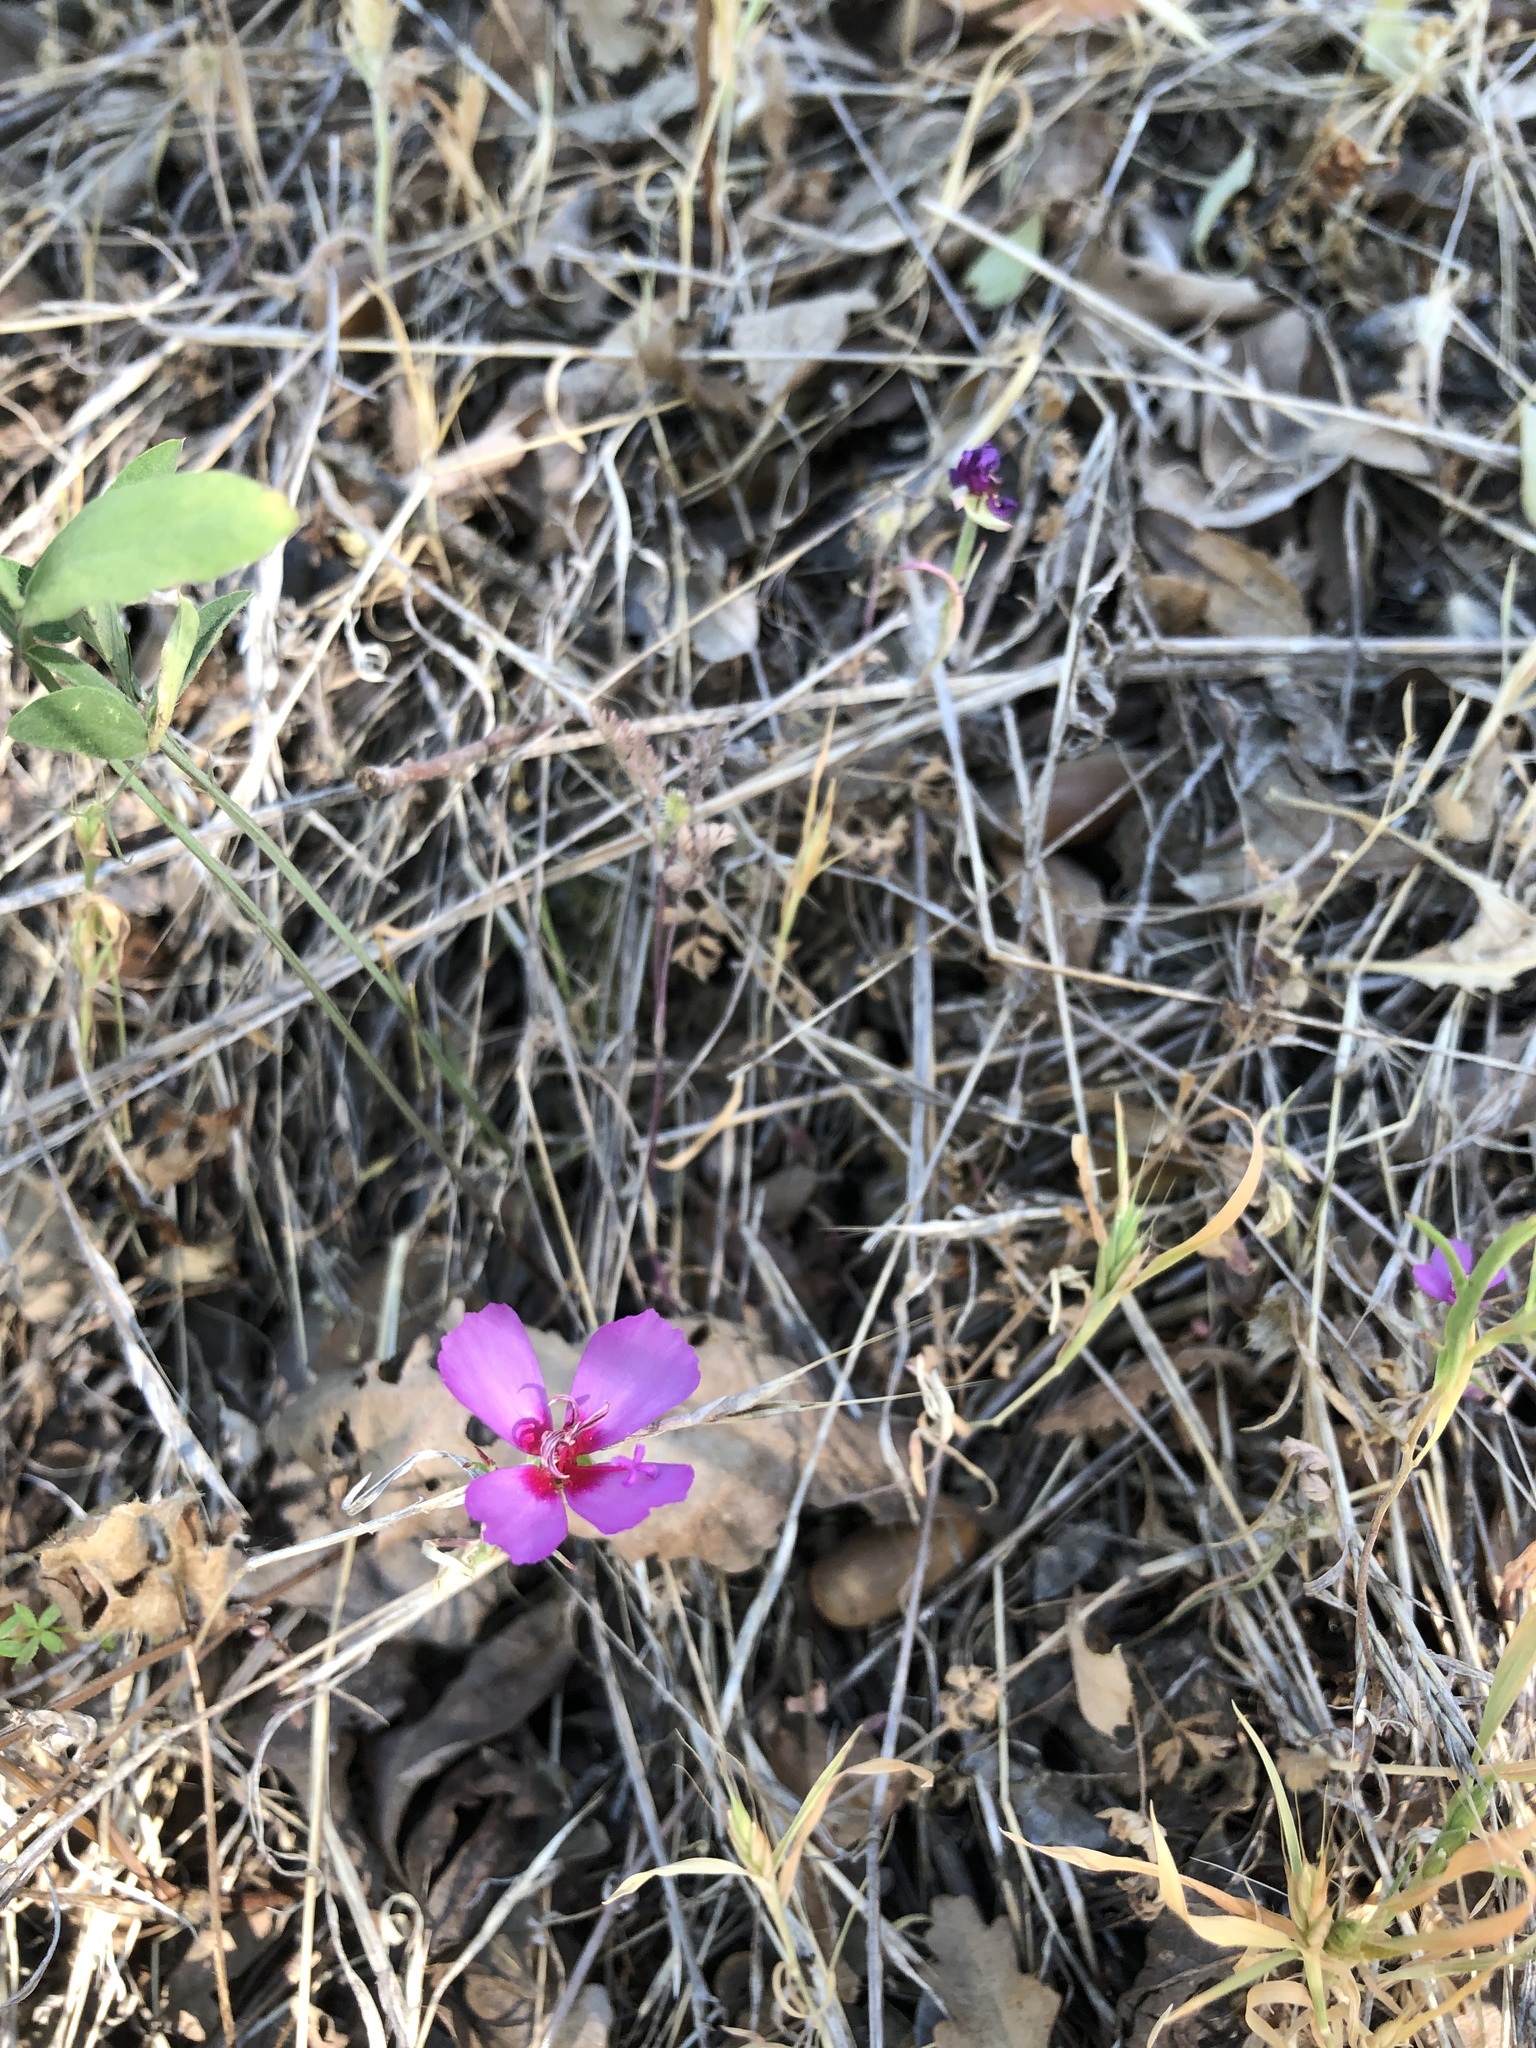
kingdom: Plantae
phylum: Tracheophyta
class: Magnoliopsida
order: Myrtales
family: Onagraceae
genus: Clarkia
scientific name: Clarkia rubicunda
